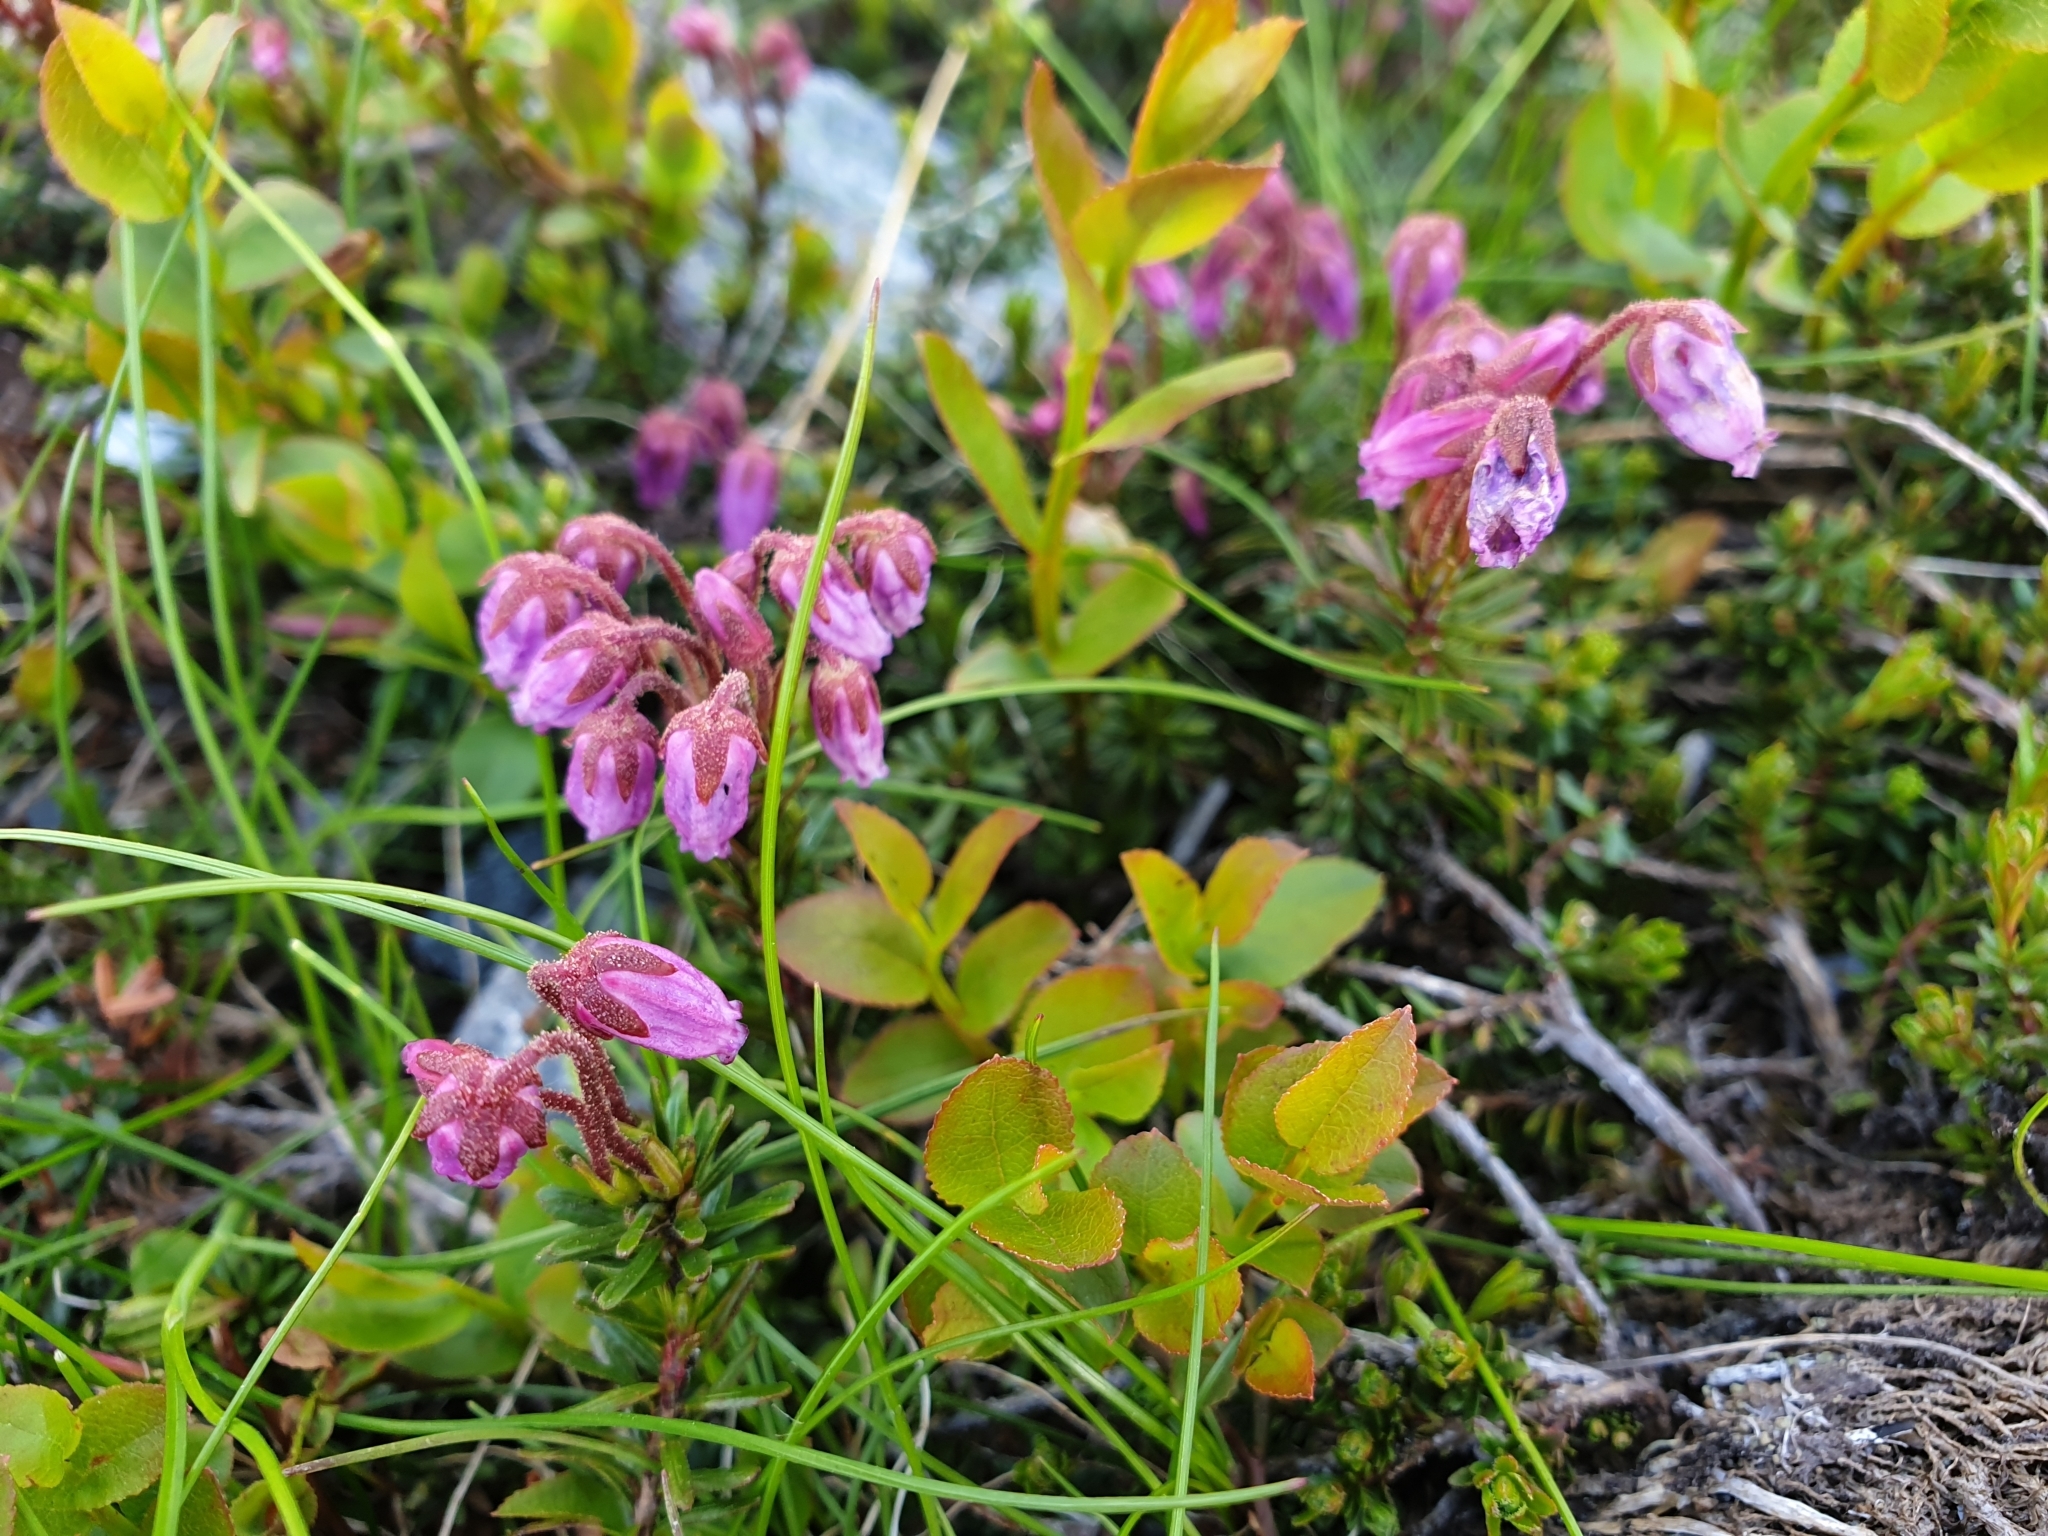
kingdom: Plantae
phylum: Tracheophyta
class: Magnoliopsida
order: Ericales
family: Ericaceae
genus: Phyllodoce
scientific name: Phyllodoce caerulea
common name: Blue heath
